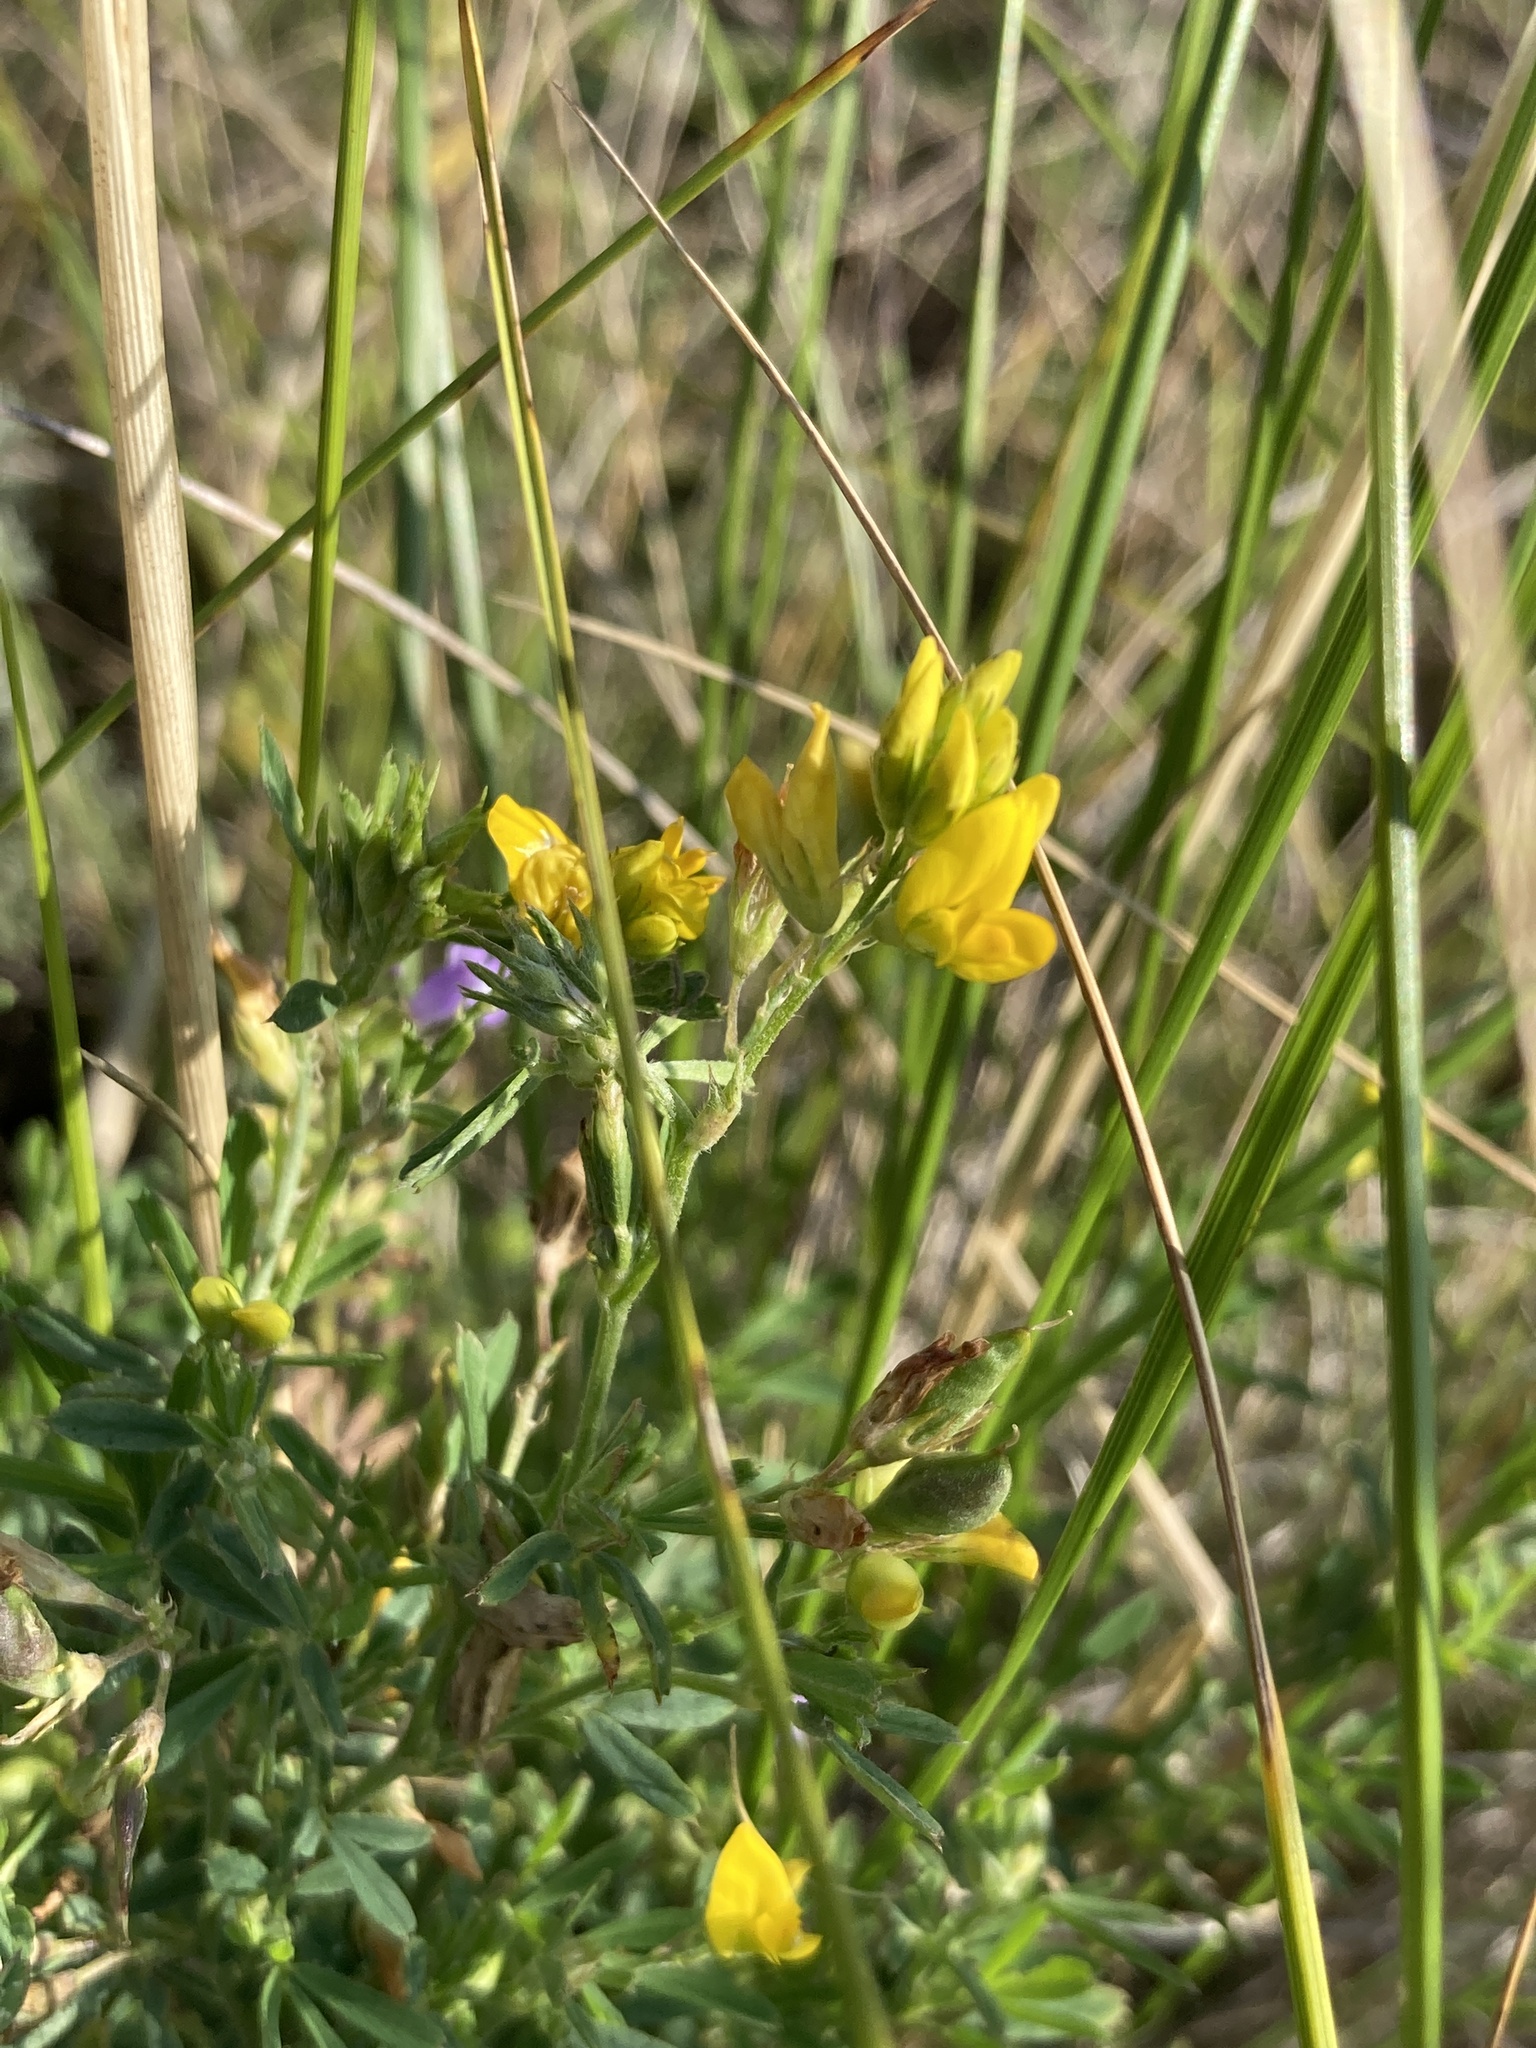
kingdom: Plantae
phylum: Tracheophyta
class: Magnoliopsida
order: Fabales
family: Fabaceae
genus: Medicago
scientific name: Medicago falcata
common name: Sickle medick
